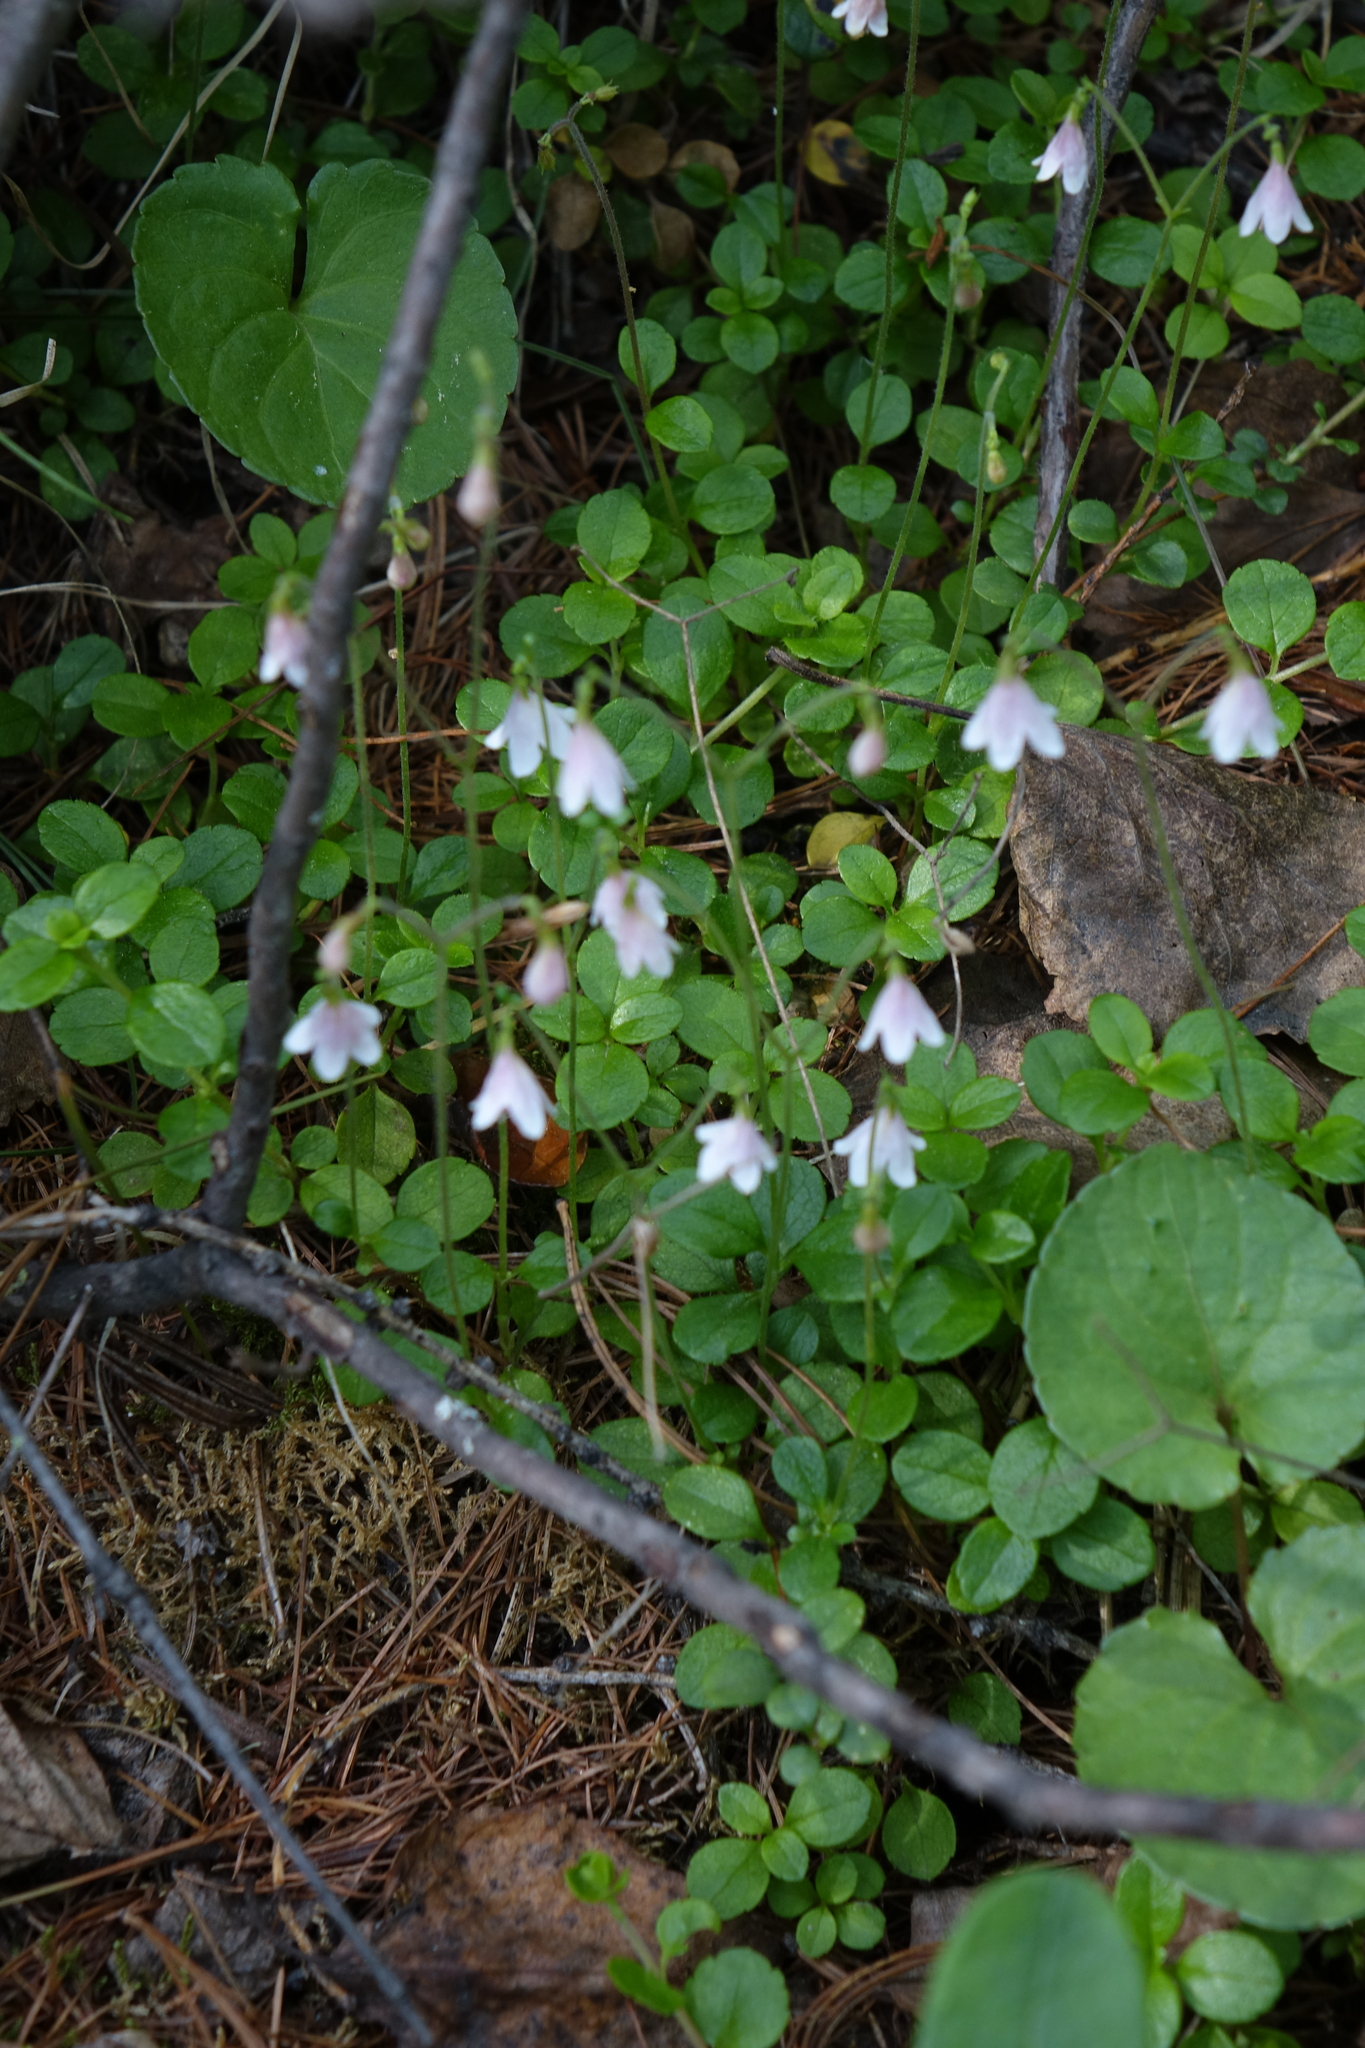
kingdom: Plantae
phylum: Tracheophyta
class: Magnoliopsida
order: Dipsacales
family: Caprifoliaceae
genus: Linnaea
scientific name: Linnaea borealis
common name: Twinflower
